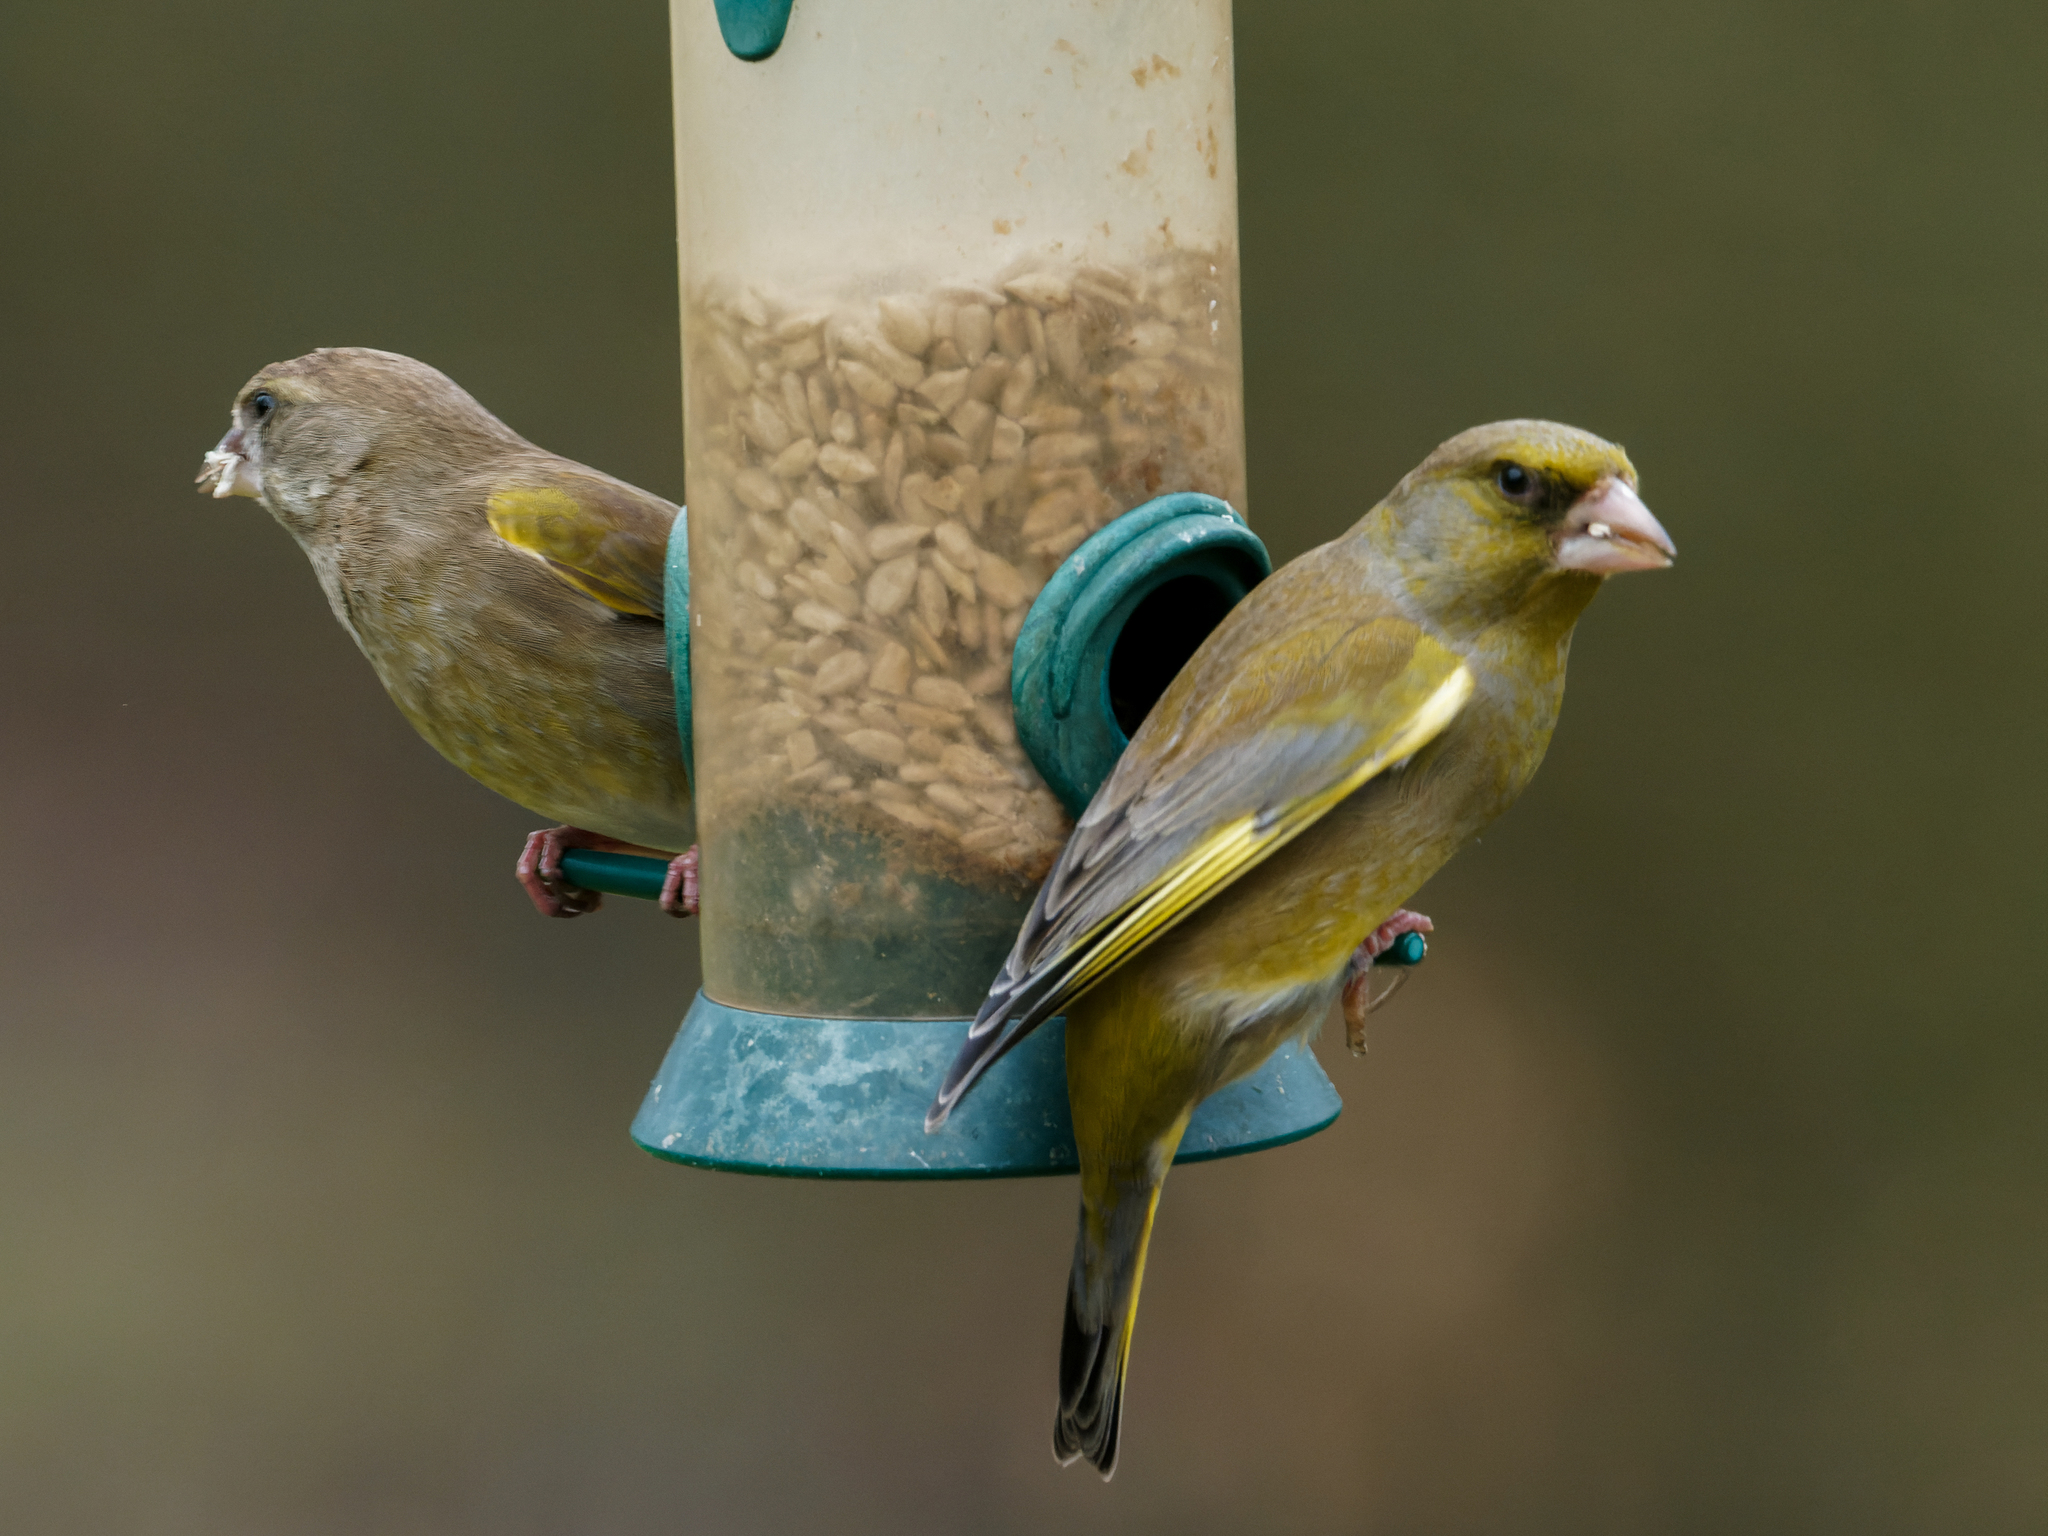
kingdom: Plantae
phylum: Tracheophyta
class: Liliopsida
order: Poales
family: Poaceae
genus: Chloris
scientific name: Chloris chloris
